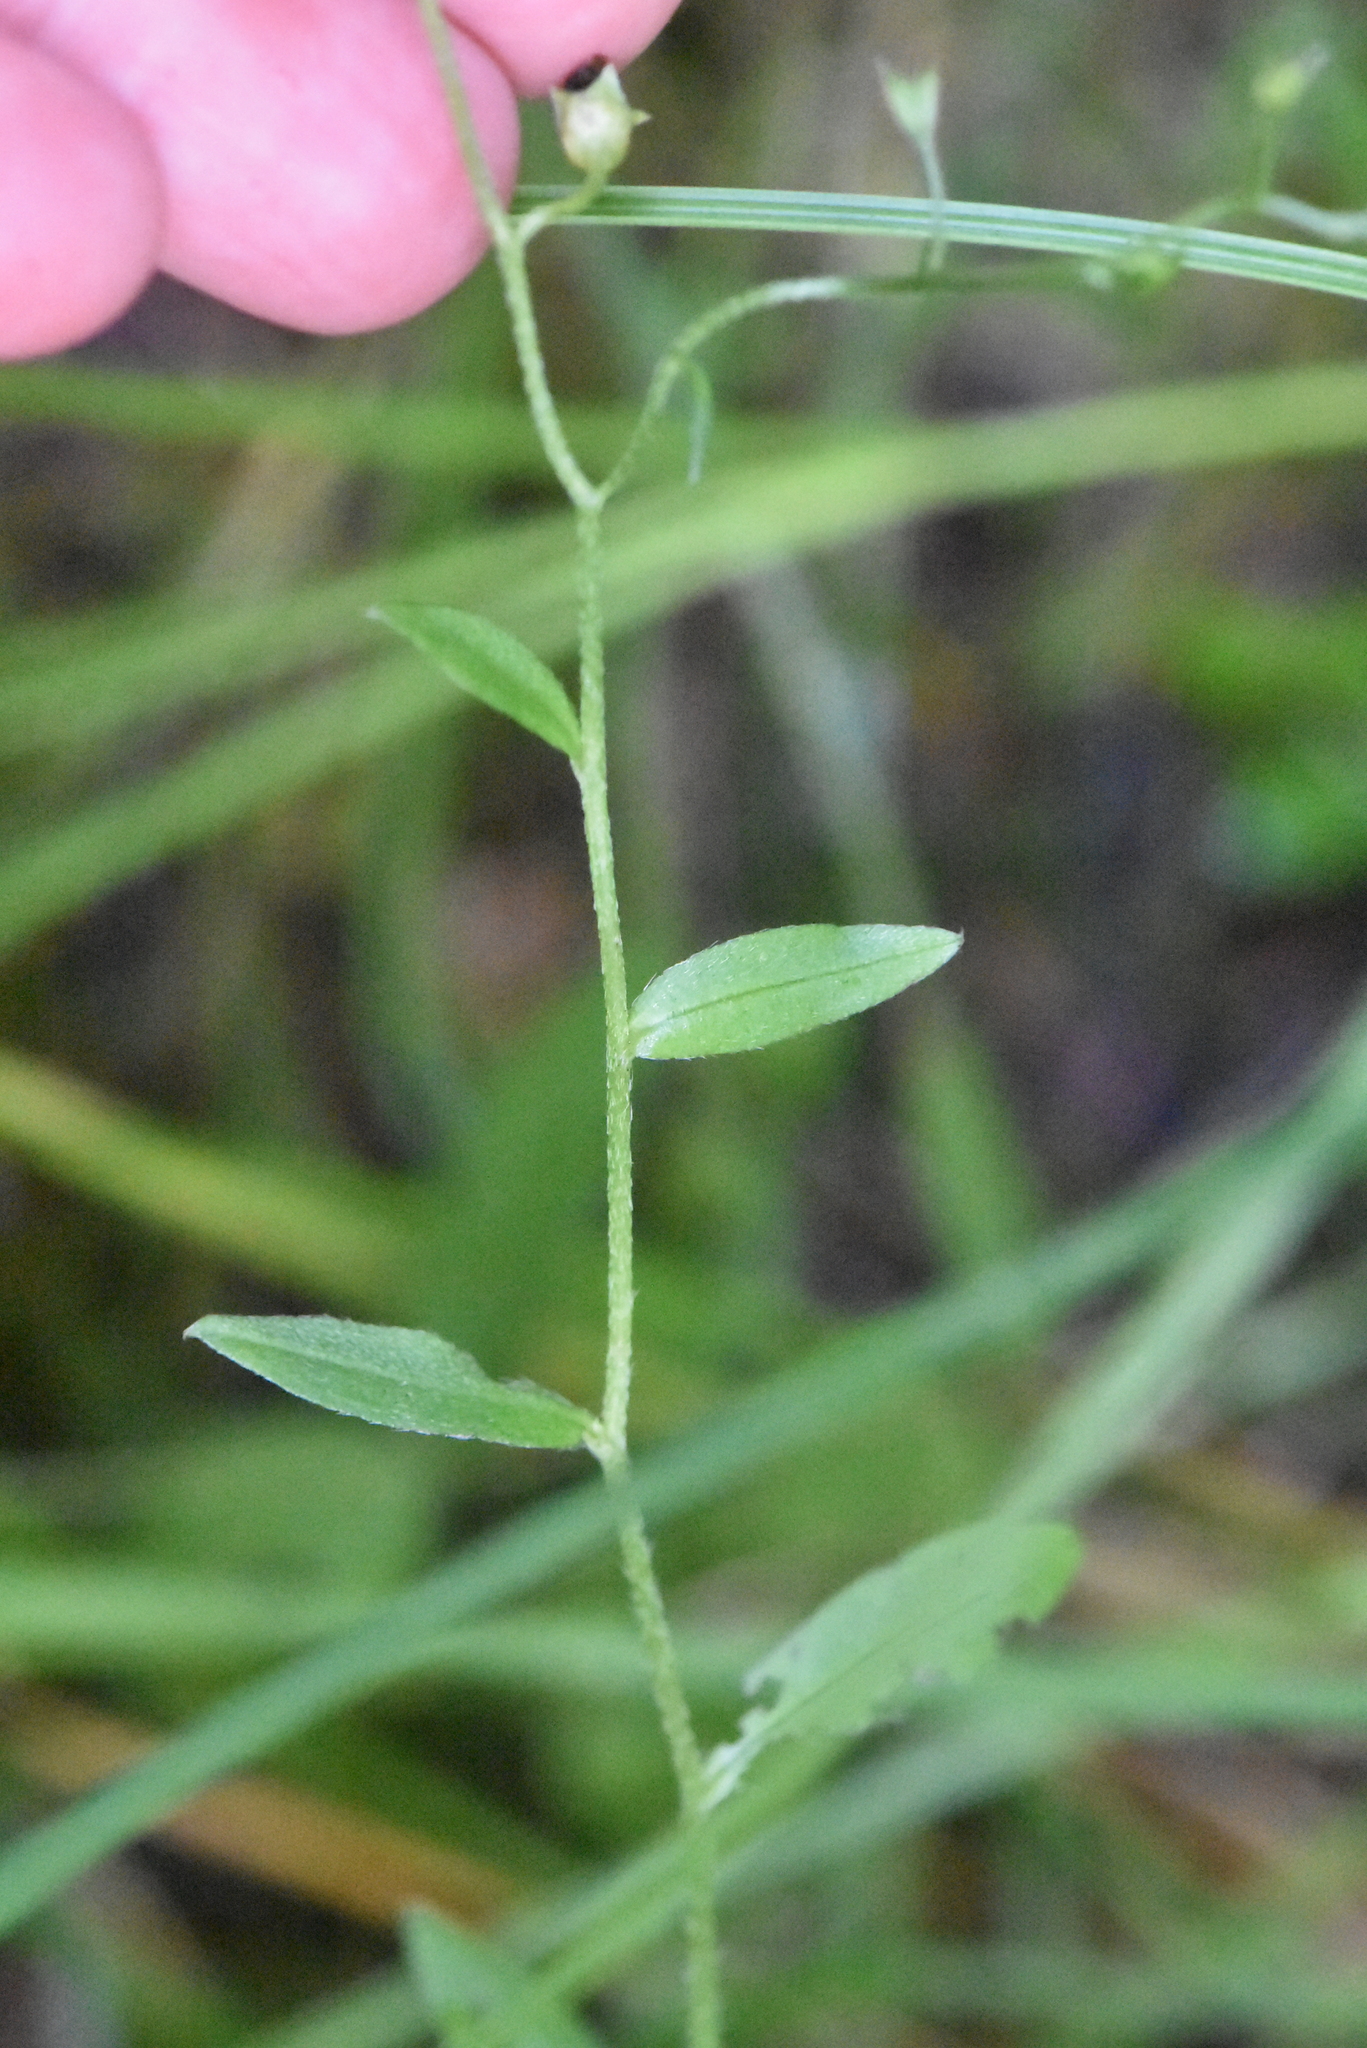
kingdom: Plantae
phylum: Tracheophyta
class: Magnoliopsida
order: Boraginales
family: Boraginaceae
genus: Myosotis
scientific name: Myosotis scorpioides
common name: Water forget-me-not
